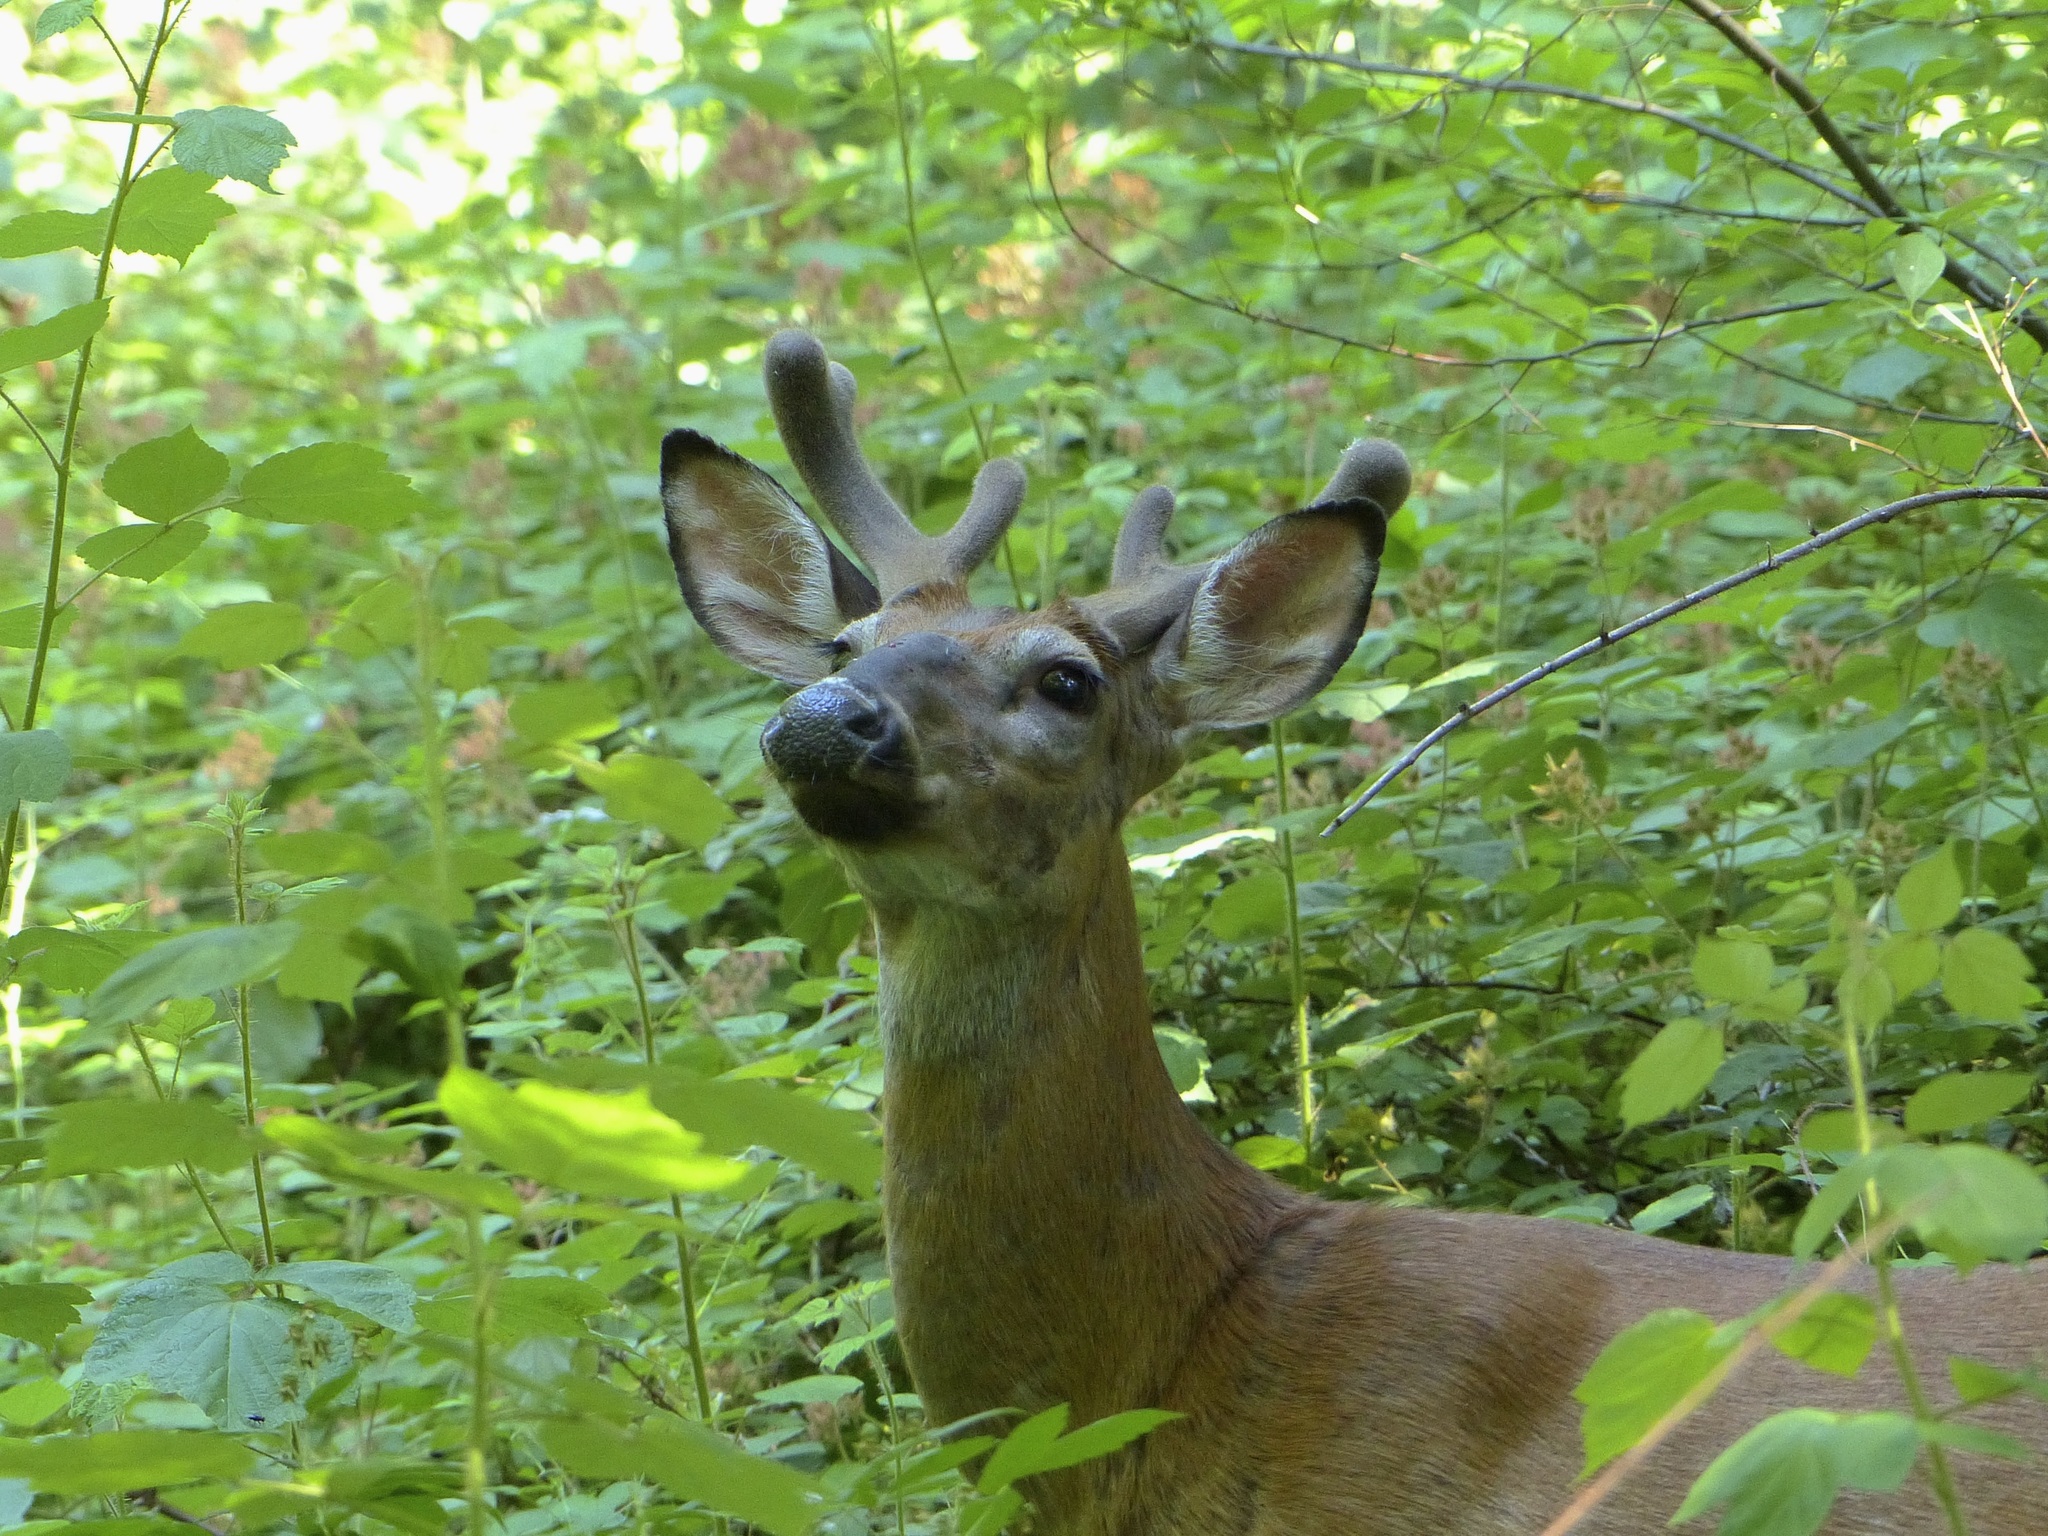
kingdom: Animalia
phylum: Chordata
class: Mammalia
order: Artiodactyla
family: Cervidae
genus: Odocoileus
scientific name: Odocoileus virginianus
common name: White-tailed deer
